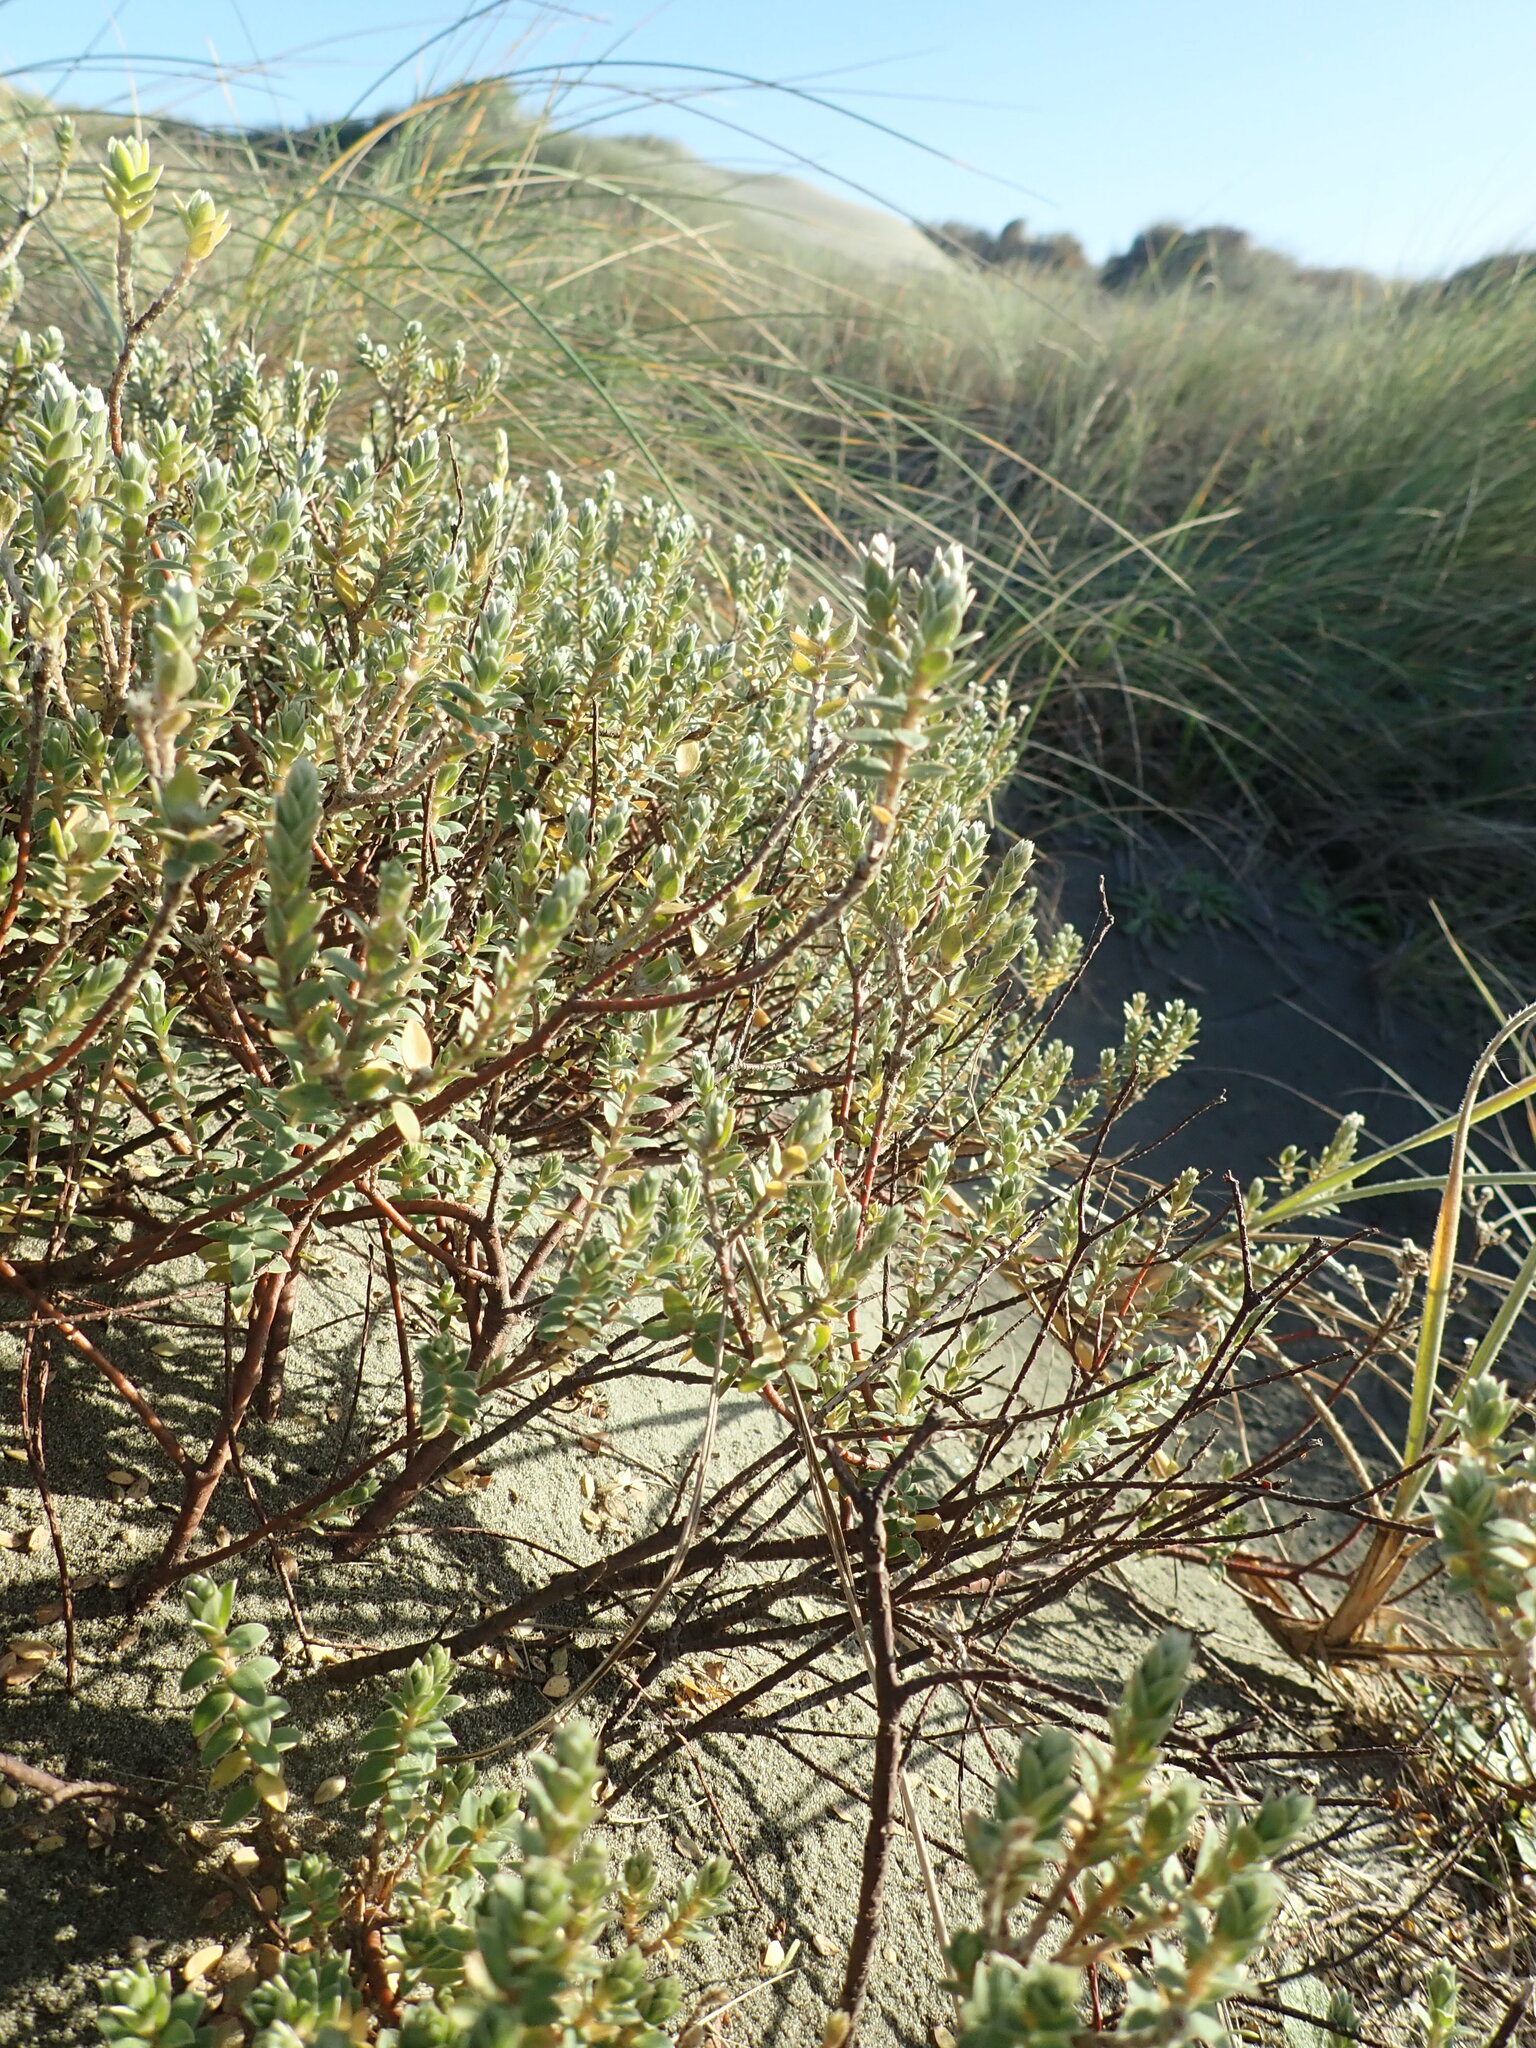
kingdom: Plantae
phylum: Tracheophyta
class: Magnoliopsida
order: Malvales
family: Thymelaeaceae
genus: Pimelea
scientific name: Pimelea villosa
